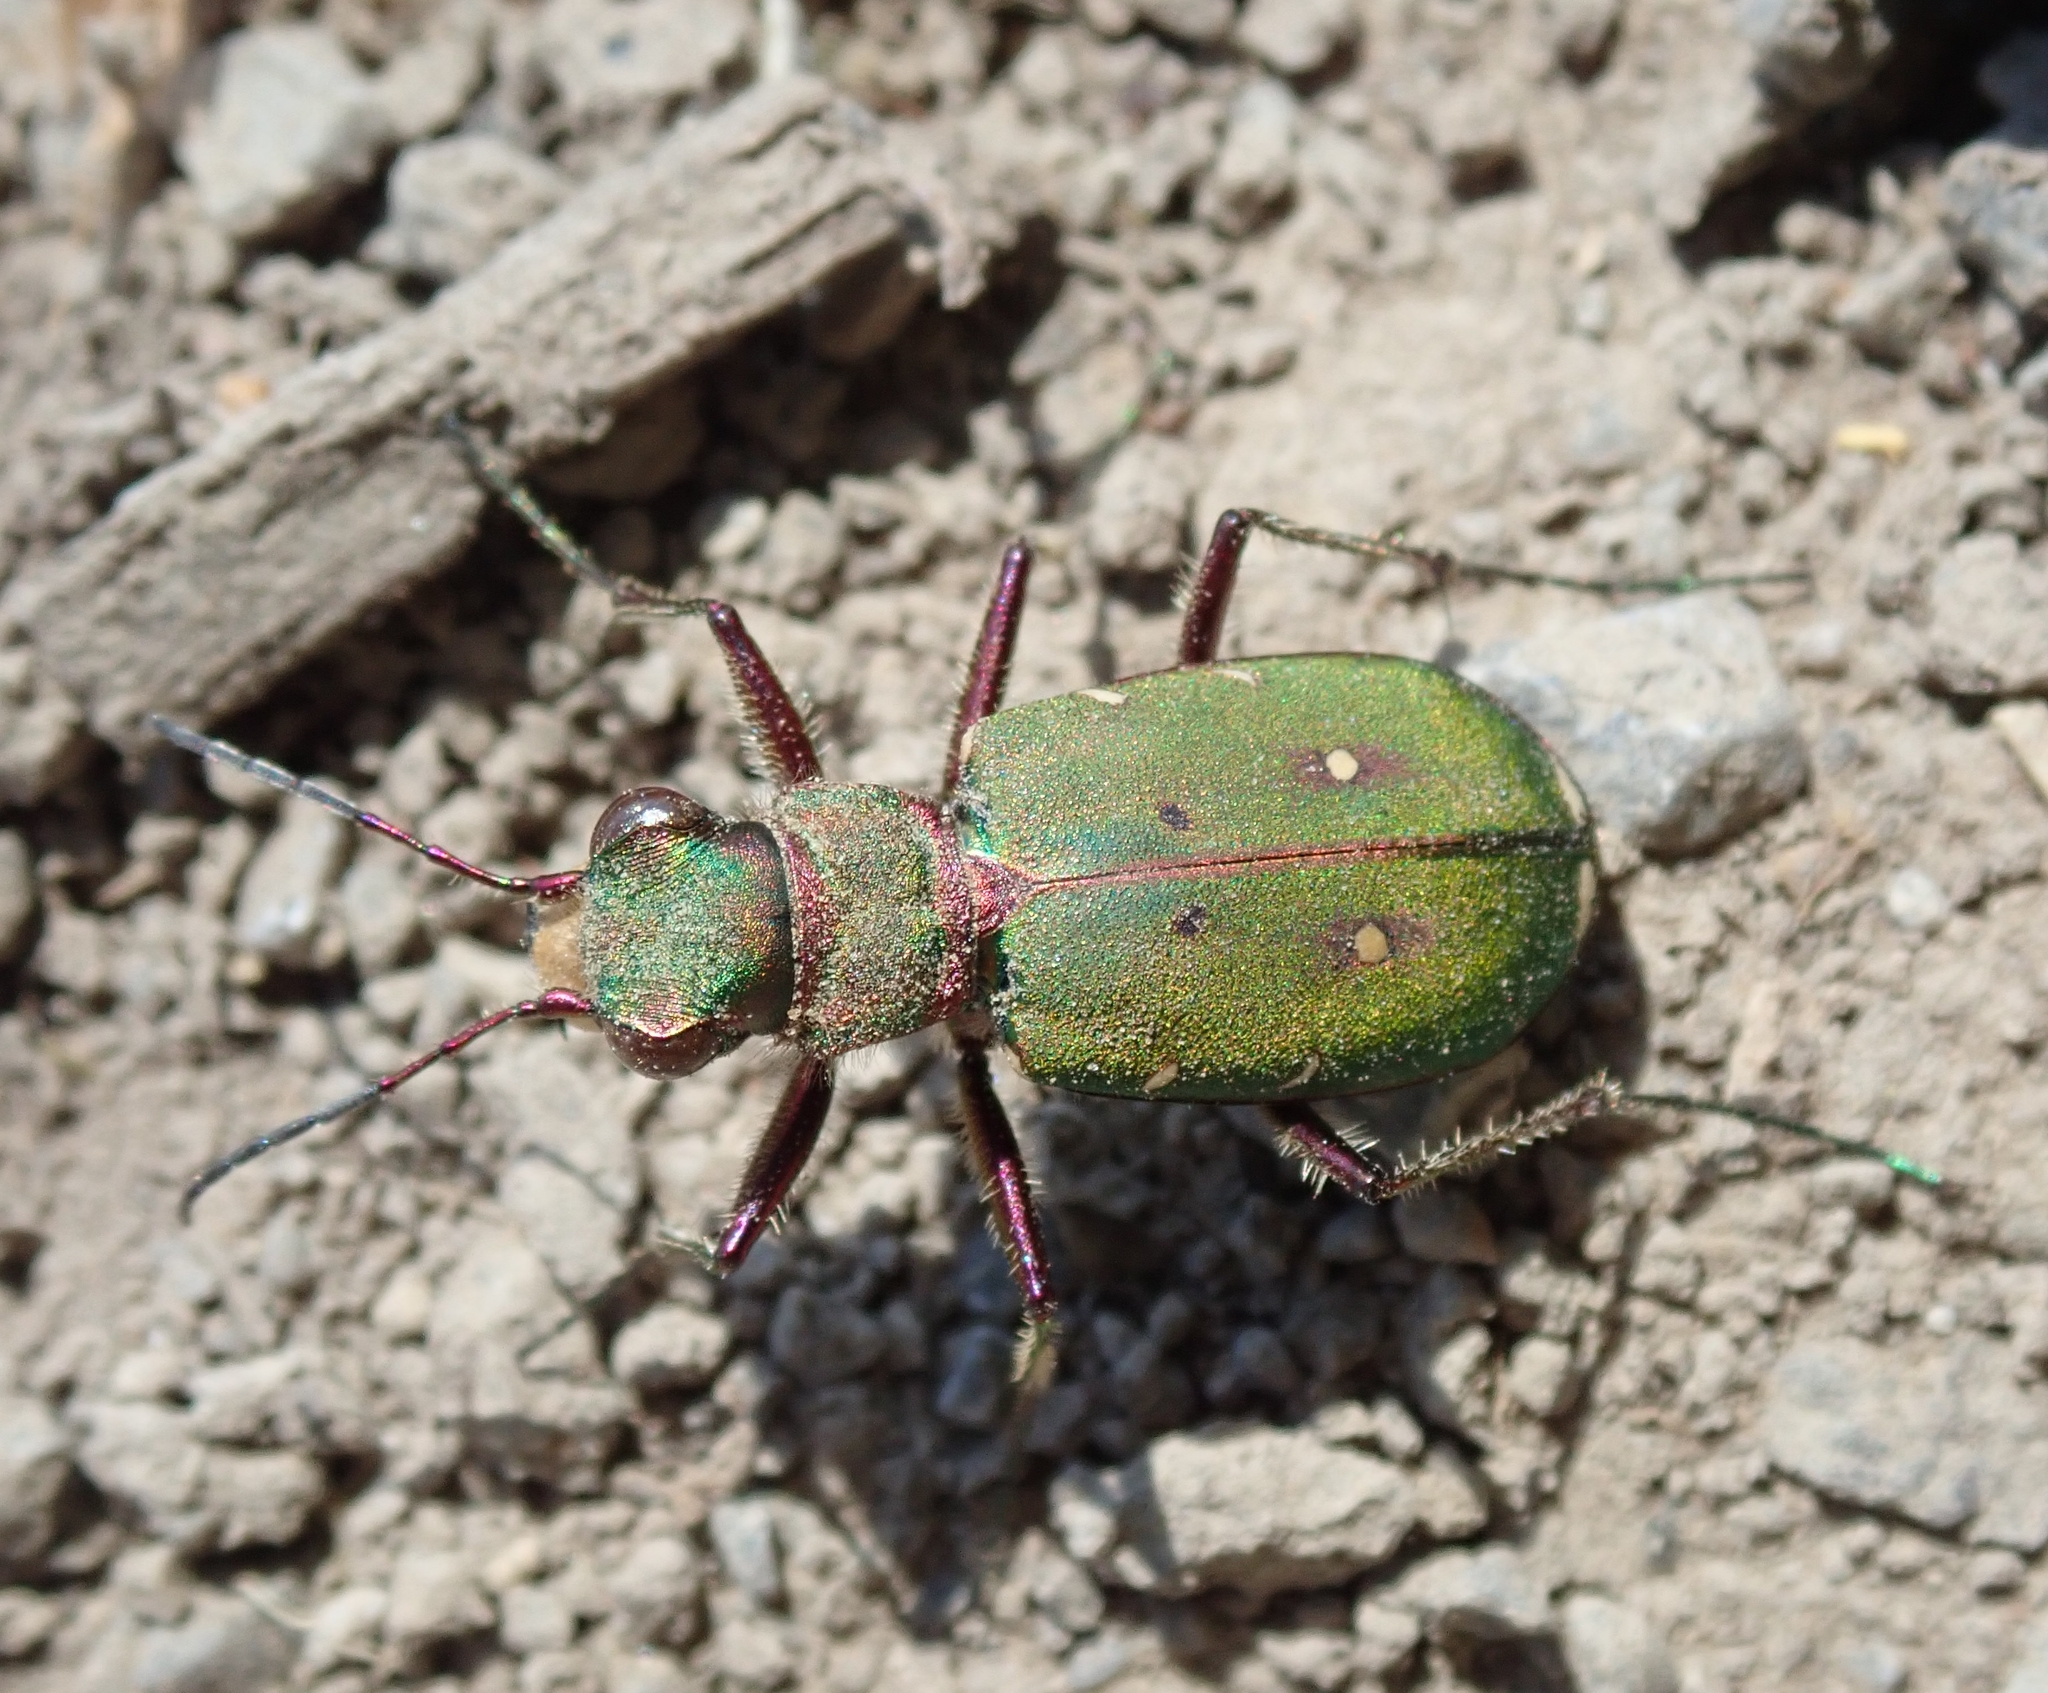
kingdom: Animalia
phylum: Arthropoda
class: Insecta
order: Coleoptera
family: Carabidae
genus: Cicindela
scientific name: Cicindela campestris
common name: Common tiger beetle
